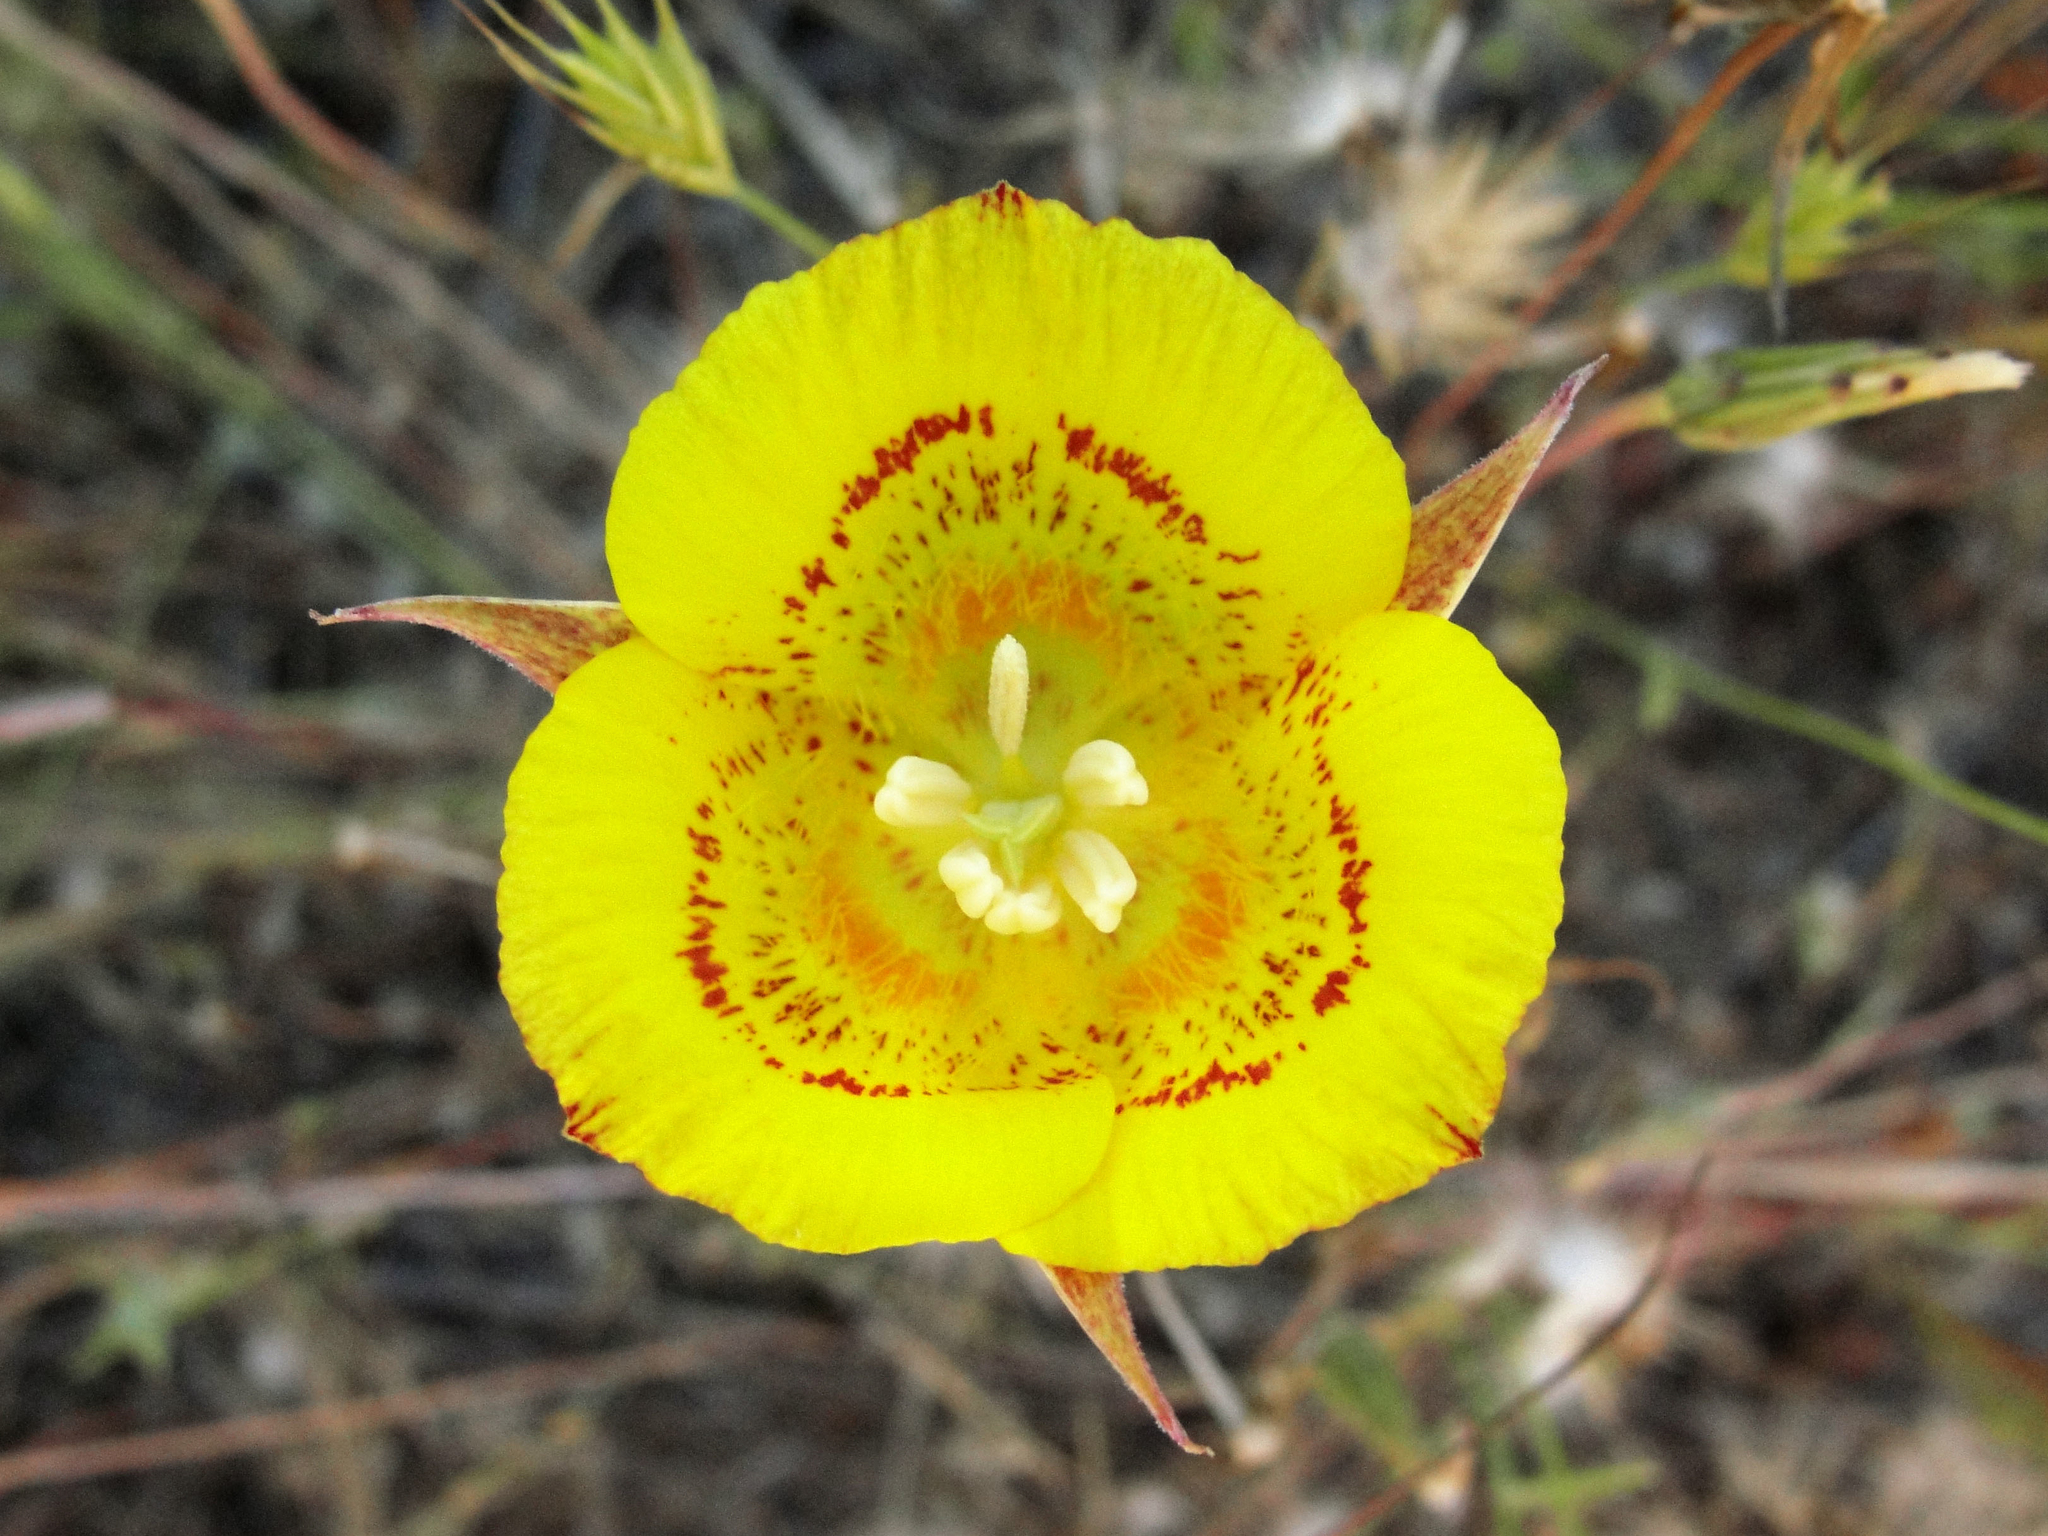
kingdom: Plantae
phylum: Tracheophyta
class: Liliopsida
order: Liliales
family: Liliaceae
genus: Calochortus
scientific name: Calochortus luteus
